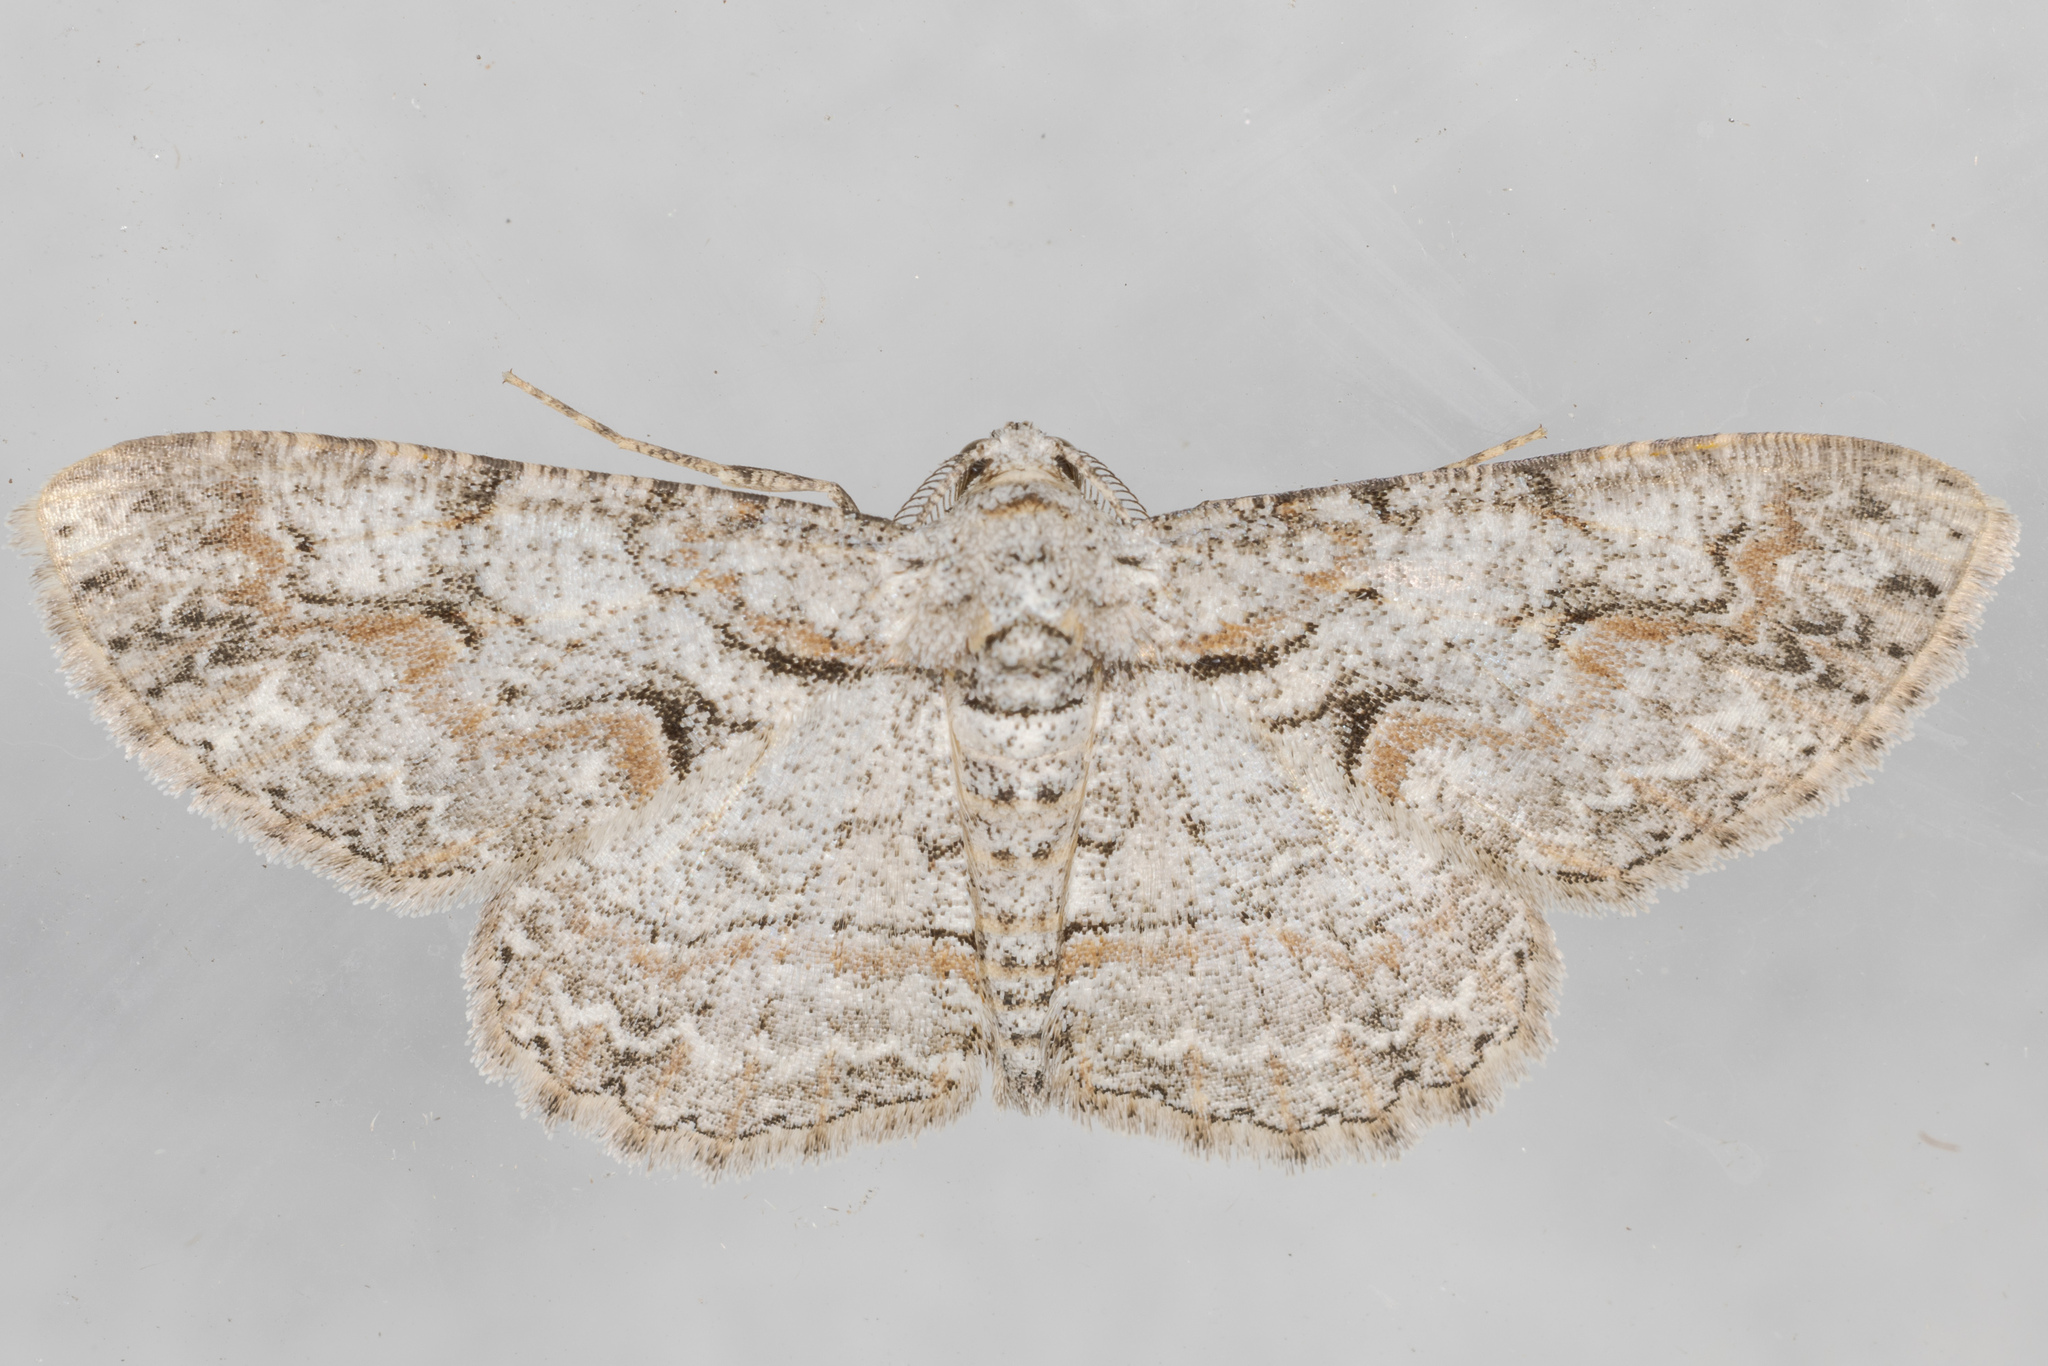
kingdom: Animalia
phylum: Arthropoda
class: Insecta
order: Lepidoptera
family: Geometridae
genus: Iridopsis
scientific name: Iridopsis defectaria
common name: Brown-shaded gray
